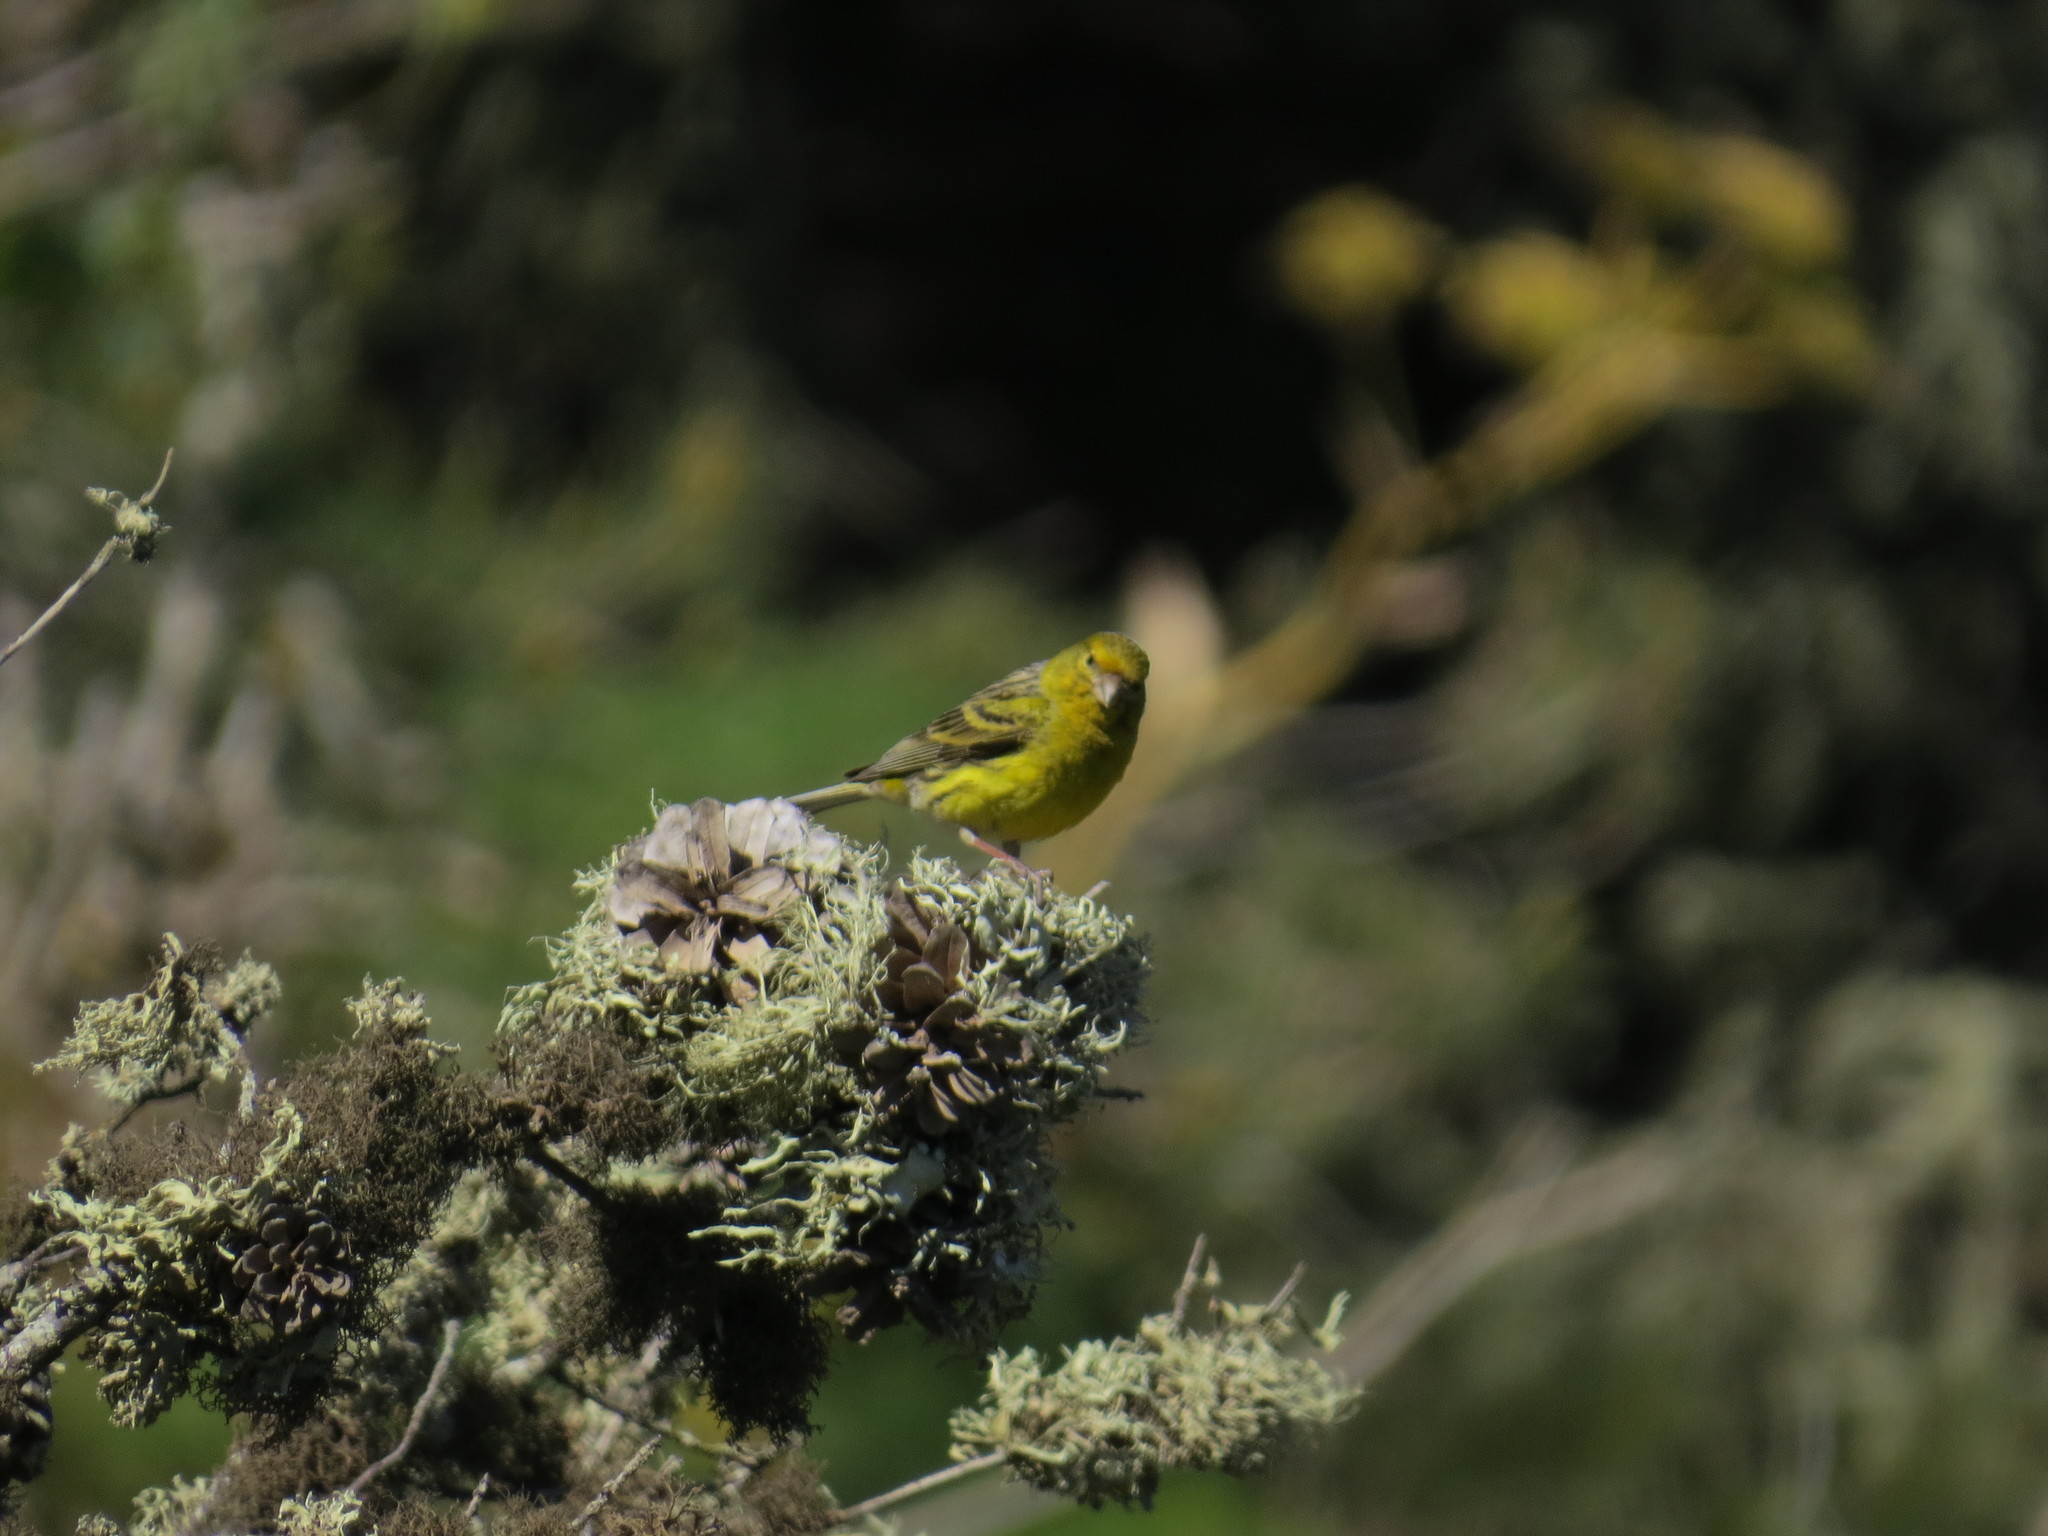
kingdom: Animalia
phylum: Chordata
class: Aves
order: Passeriformes
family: Fringillidae
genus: Serinus
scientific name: Serinus canaria
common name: Atlantic canary
